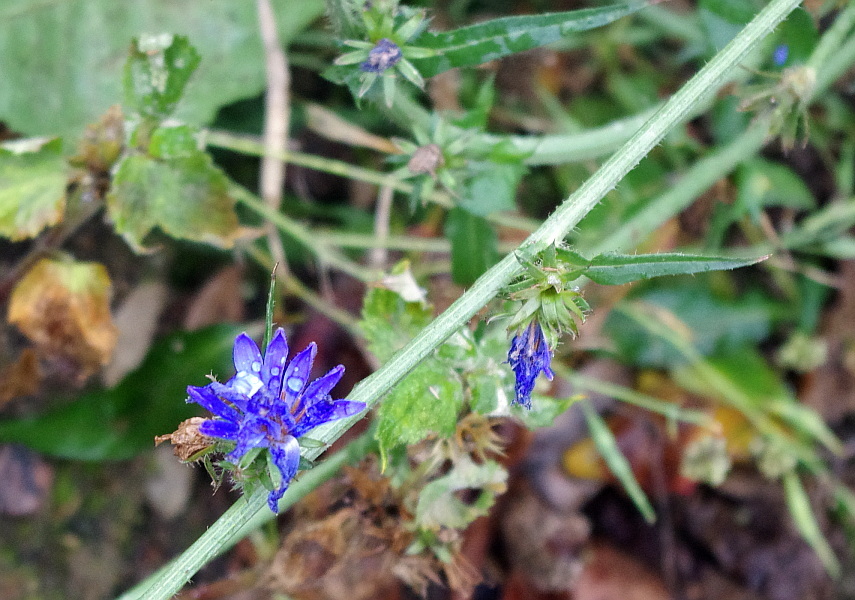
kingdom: Plantae
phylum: Tracheophyta
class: Magnoliopsida
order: Asterales
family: Asteraceae
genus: Cichorium
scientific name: Cichorium intybus
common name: Chicory
